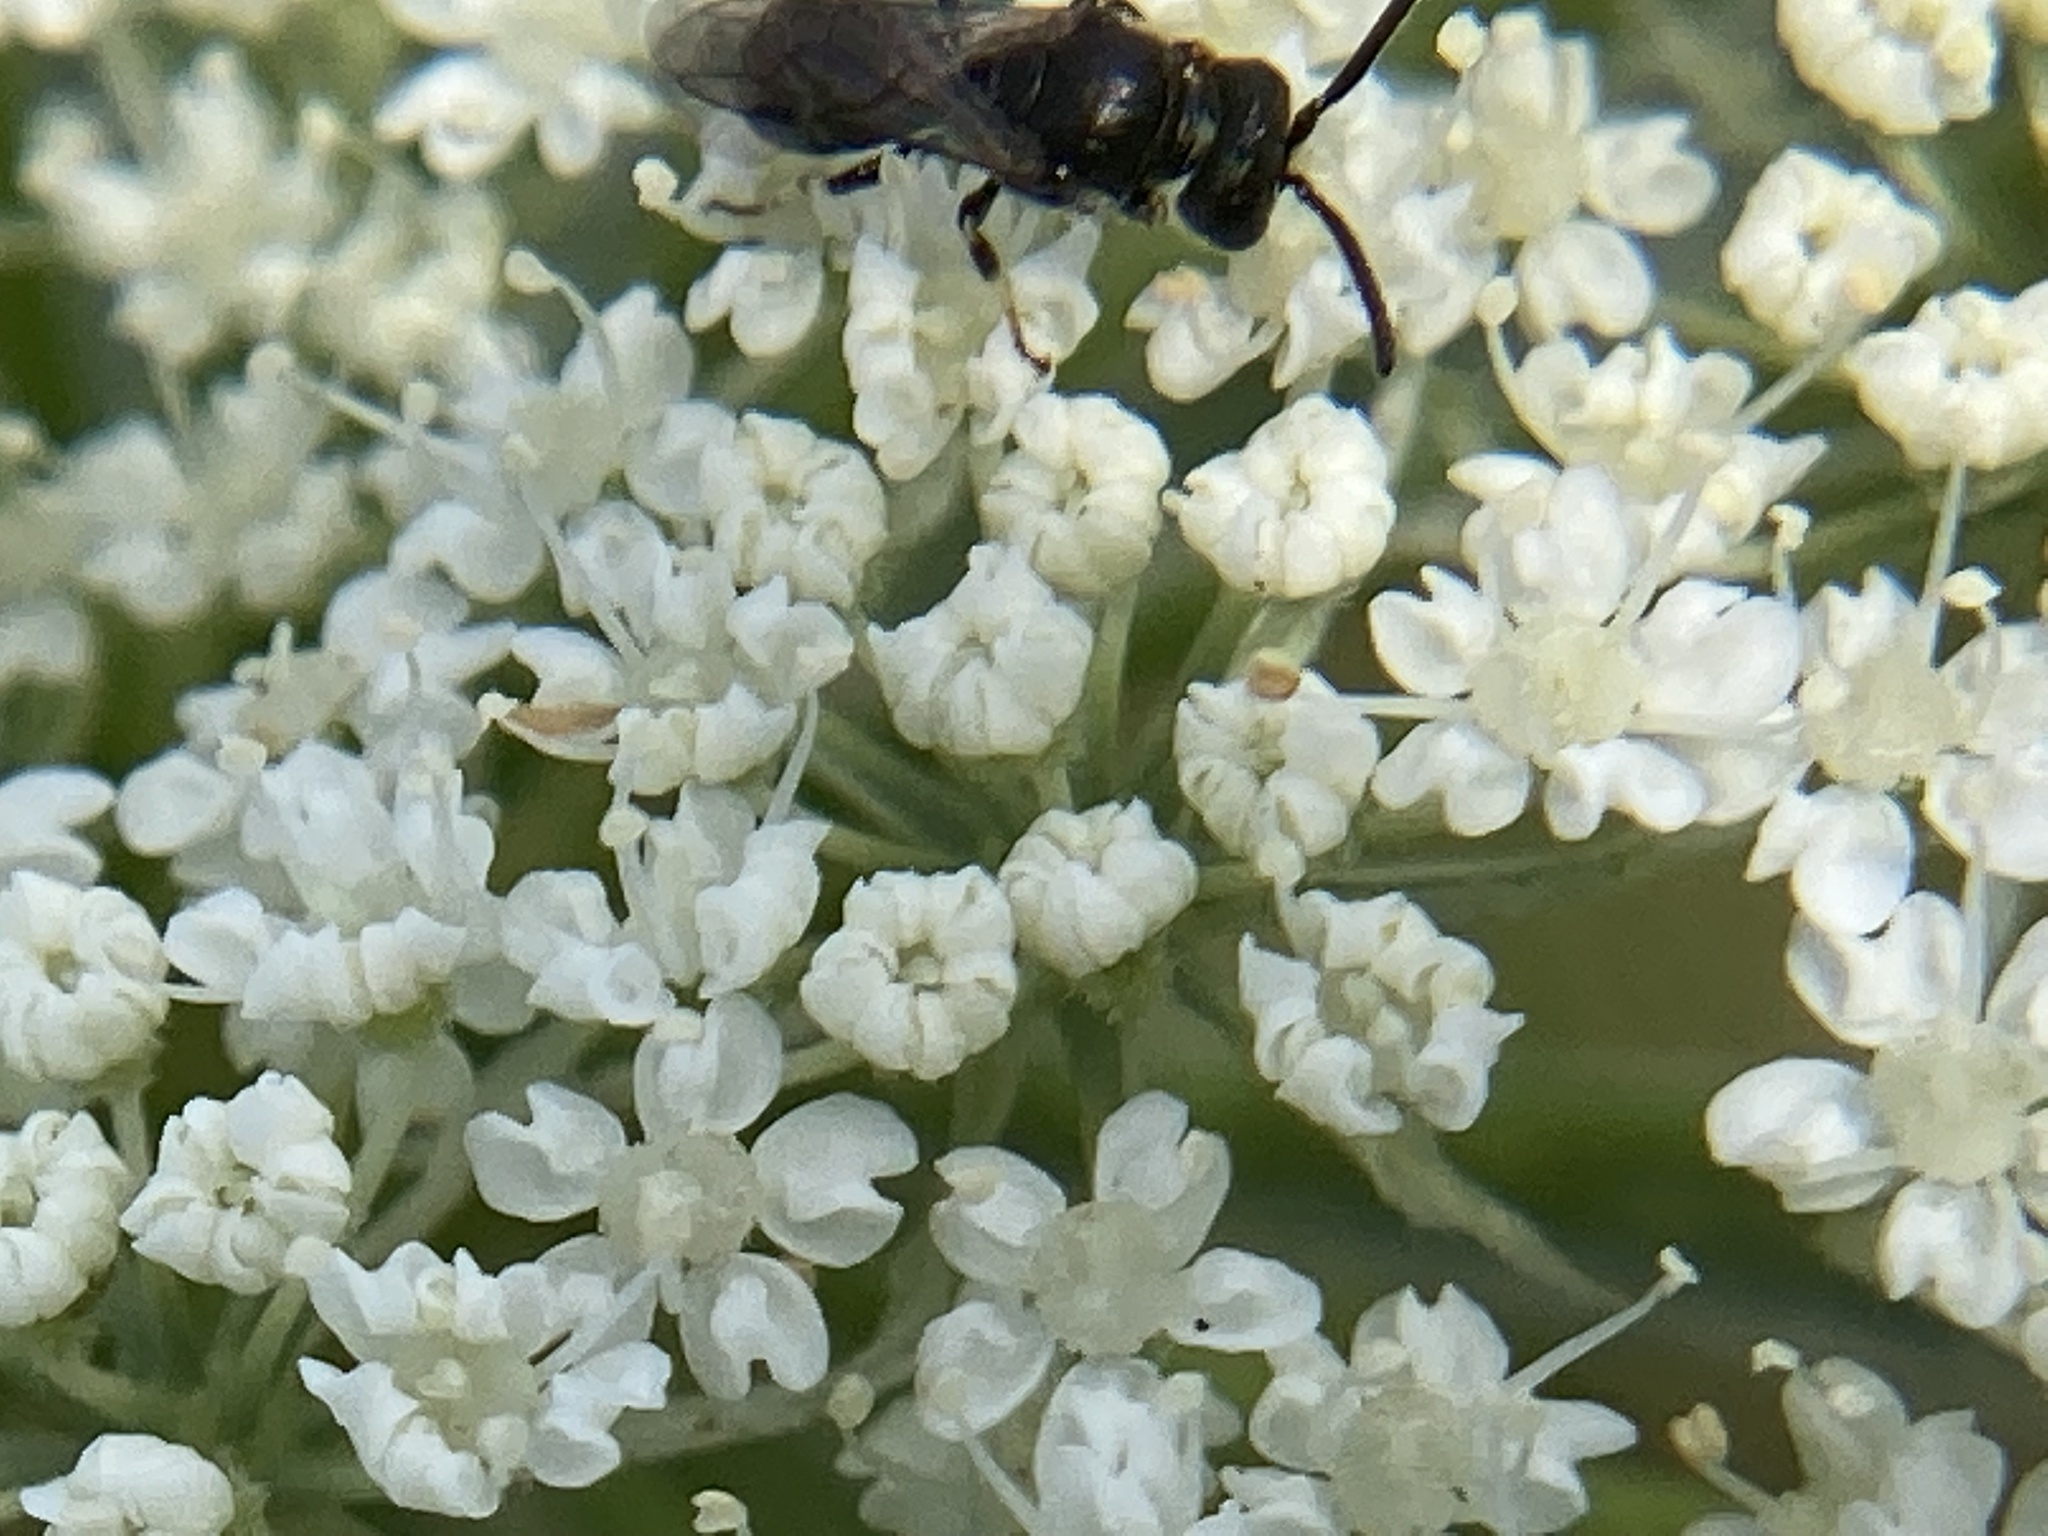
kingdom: Animalia
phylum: Arthropoda
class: Insecta
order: Hymenoptera
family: Colletidae
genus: Hylaeus
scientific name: Hylaeus mesillae
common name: Mesilla masked bee
